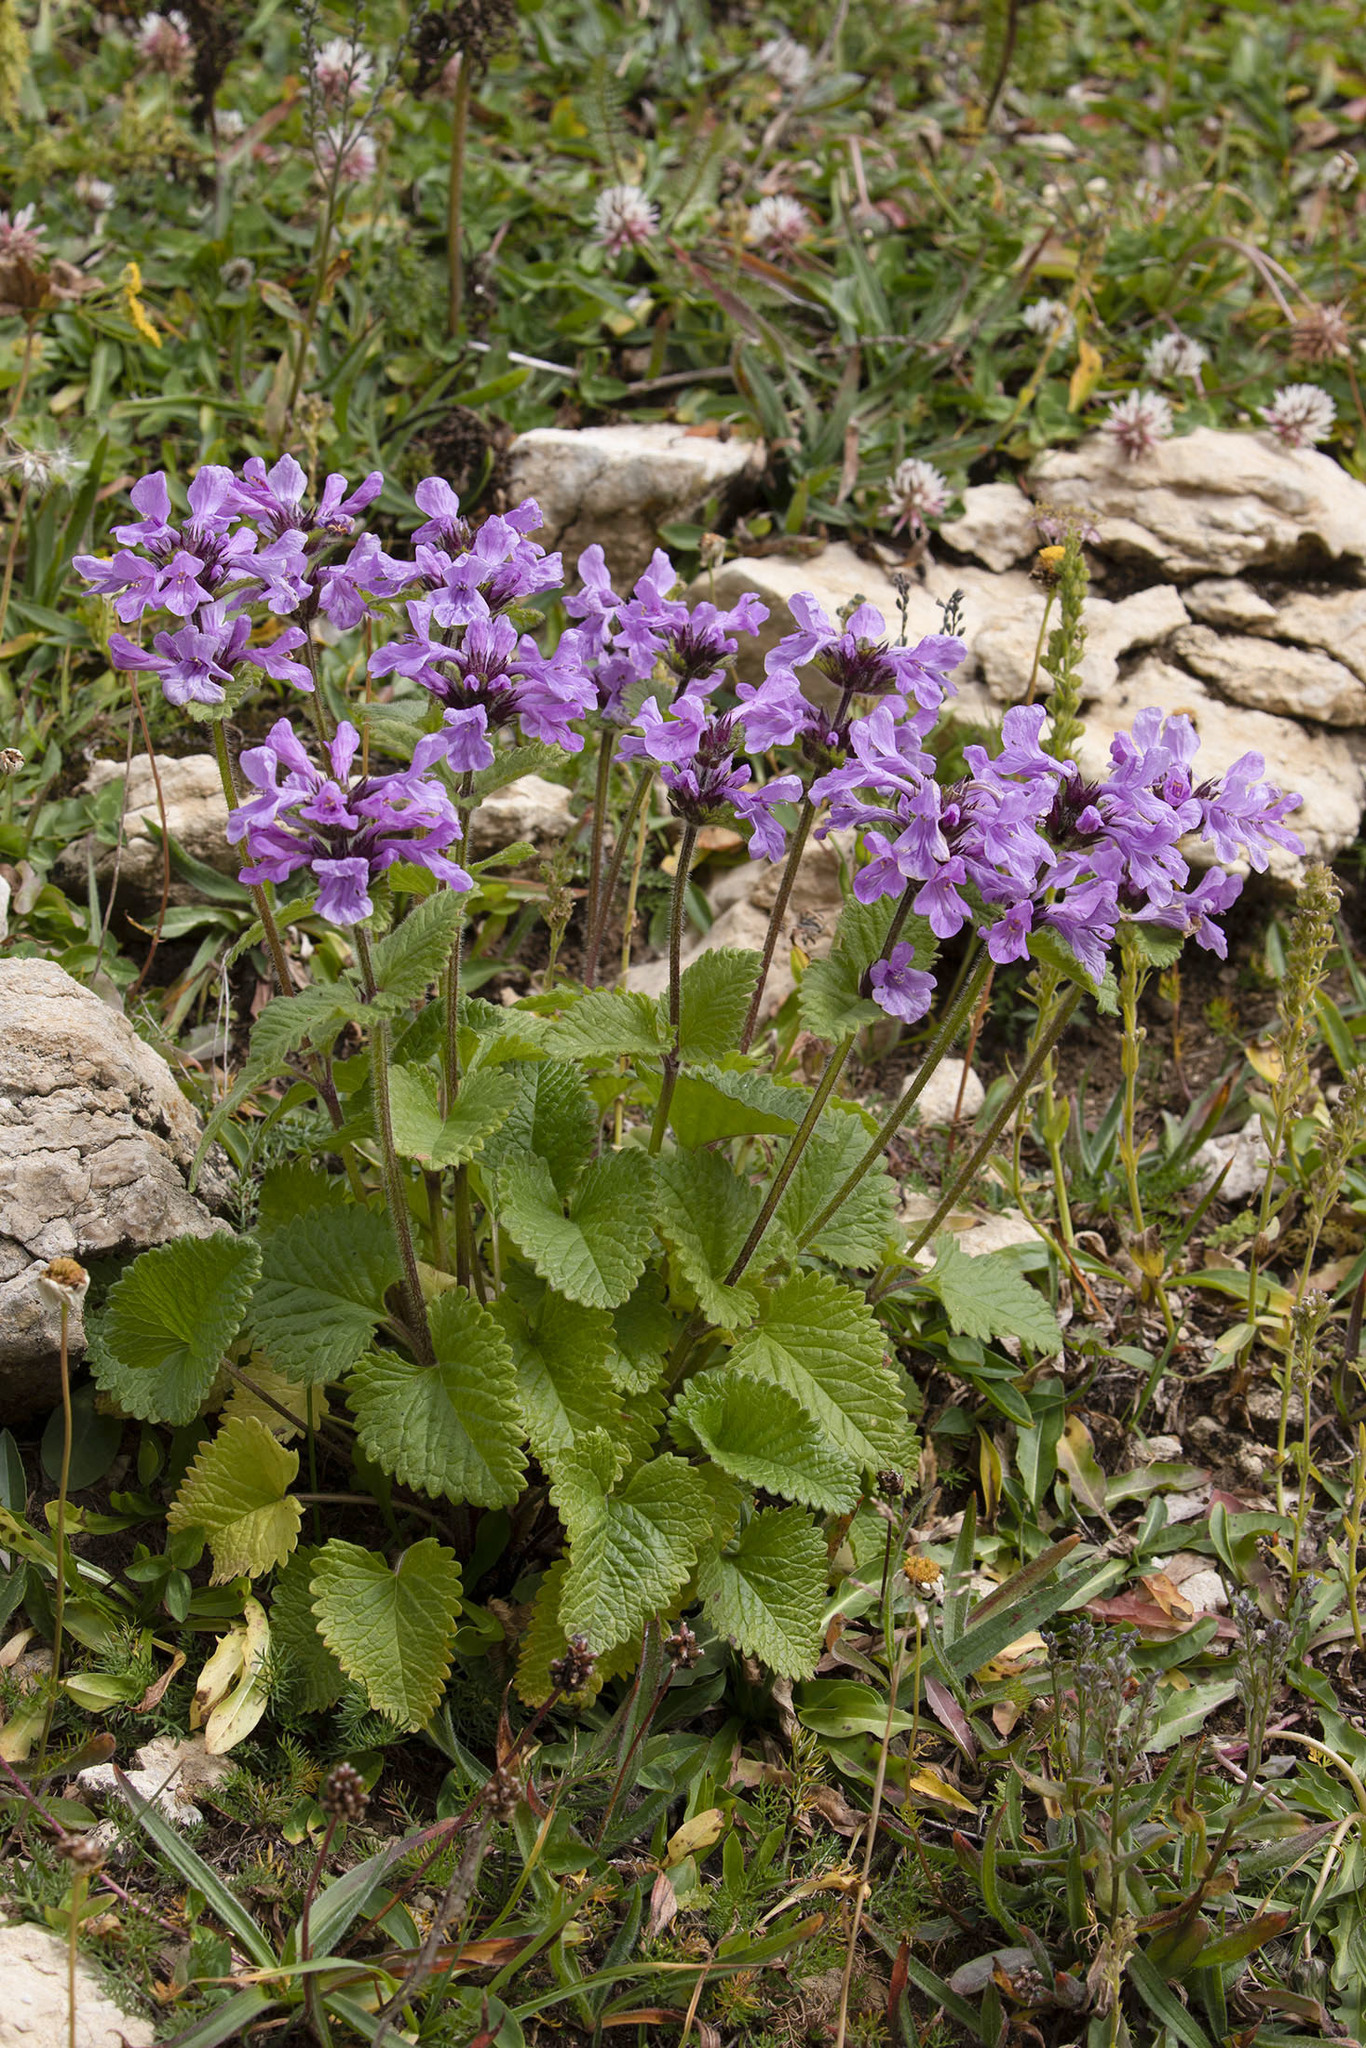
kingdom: Plantae
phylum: Tracheophyta
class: Magnoliopsida
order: Lamiales
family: Lamiaceae
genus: Betonica
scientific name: Betonica macrantha
